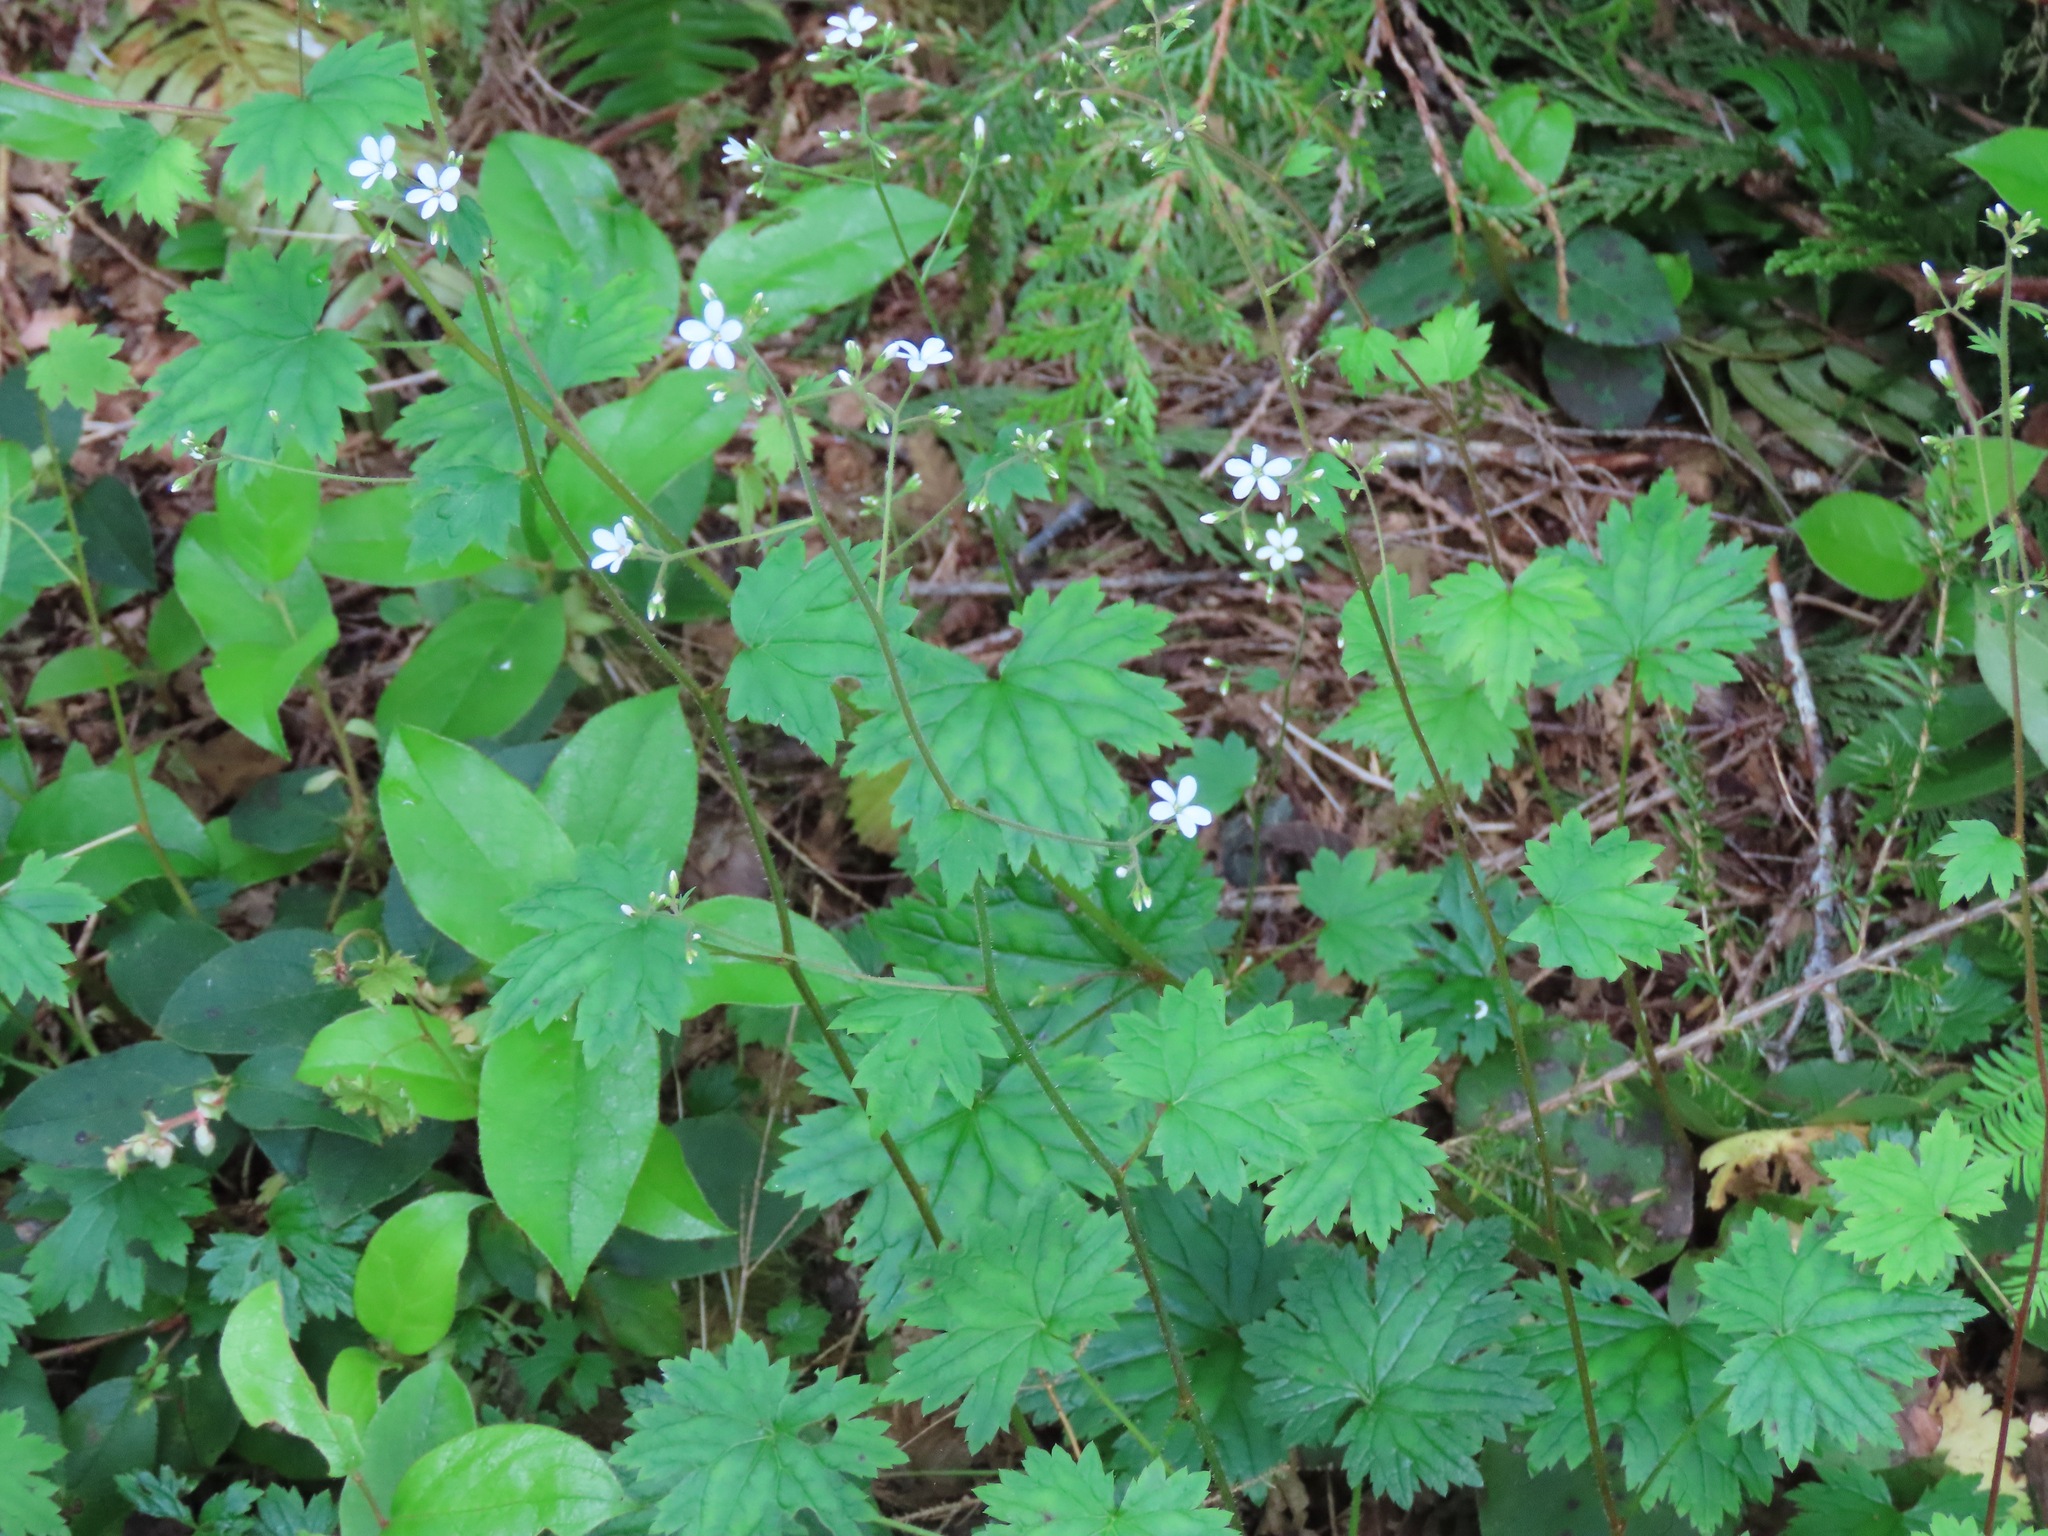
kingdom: Plantae
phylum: Tracheophyta
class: Magnoliopsida
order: Saxifragales
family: Saxifragaceae
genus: Boykinia
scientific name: Boykinia occidentalis
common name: Coast boykinia
